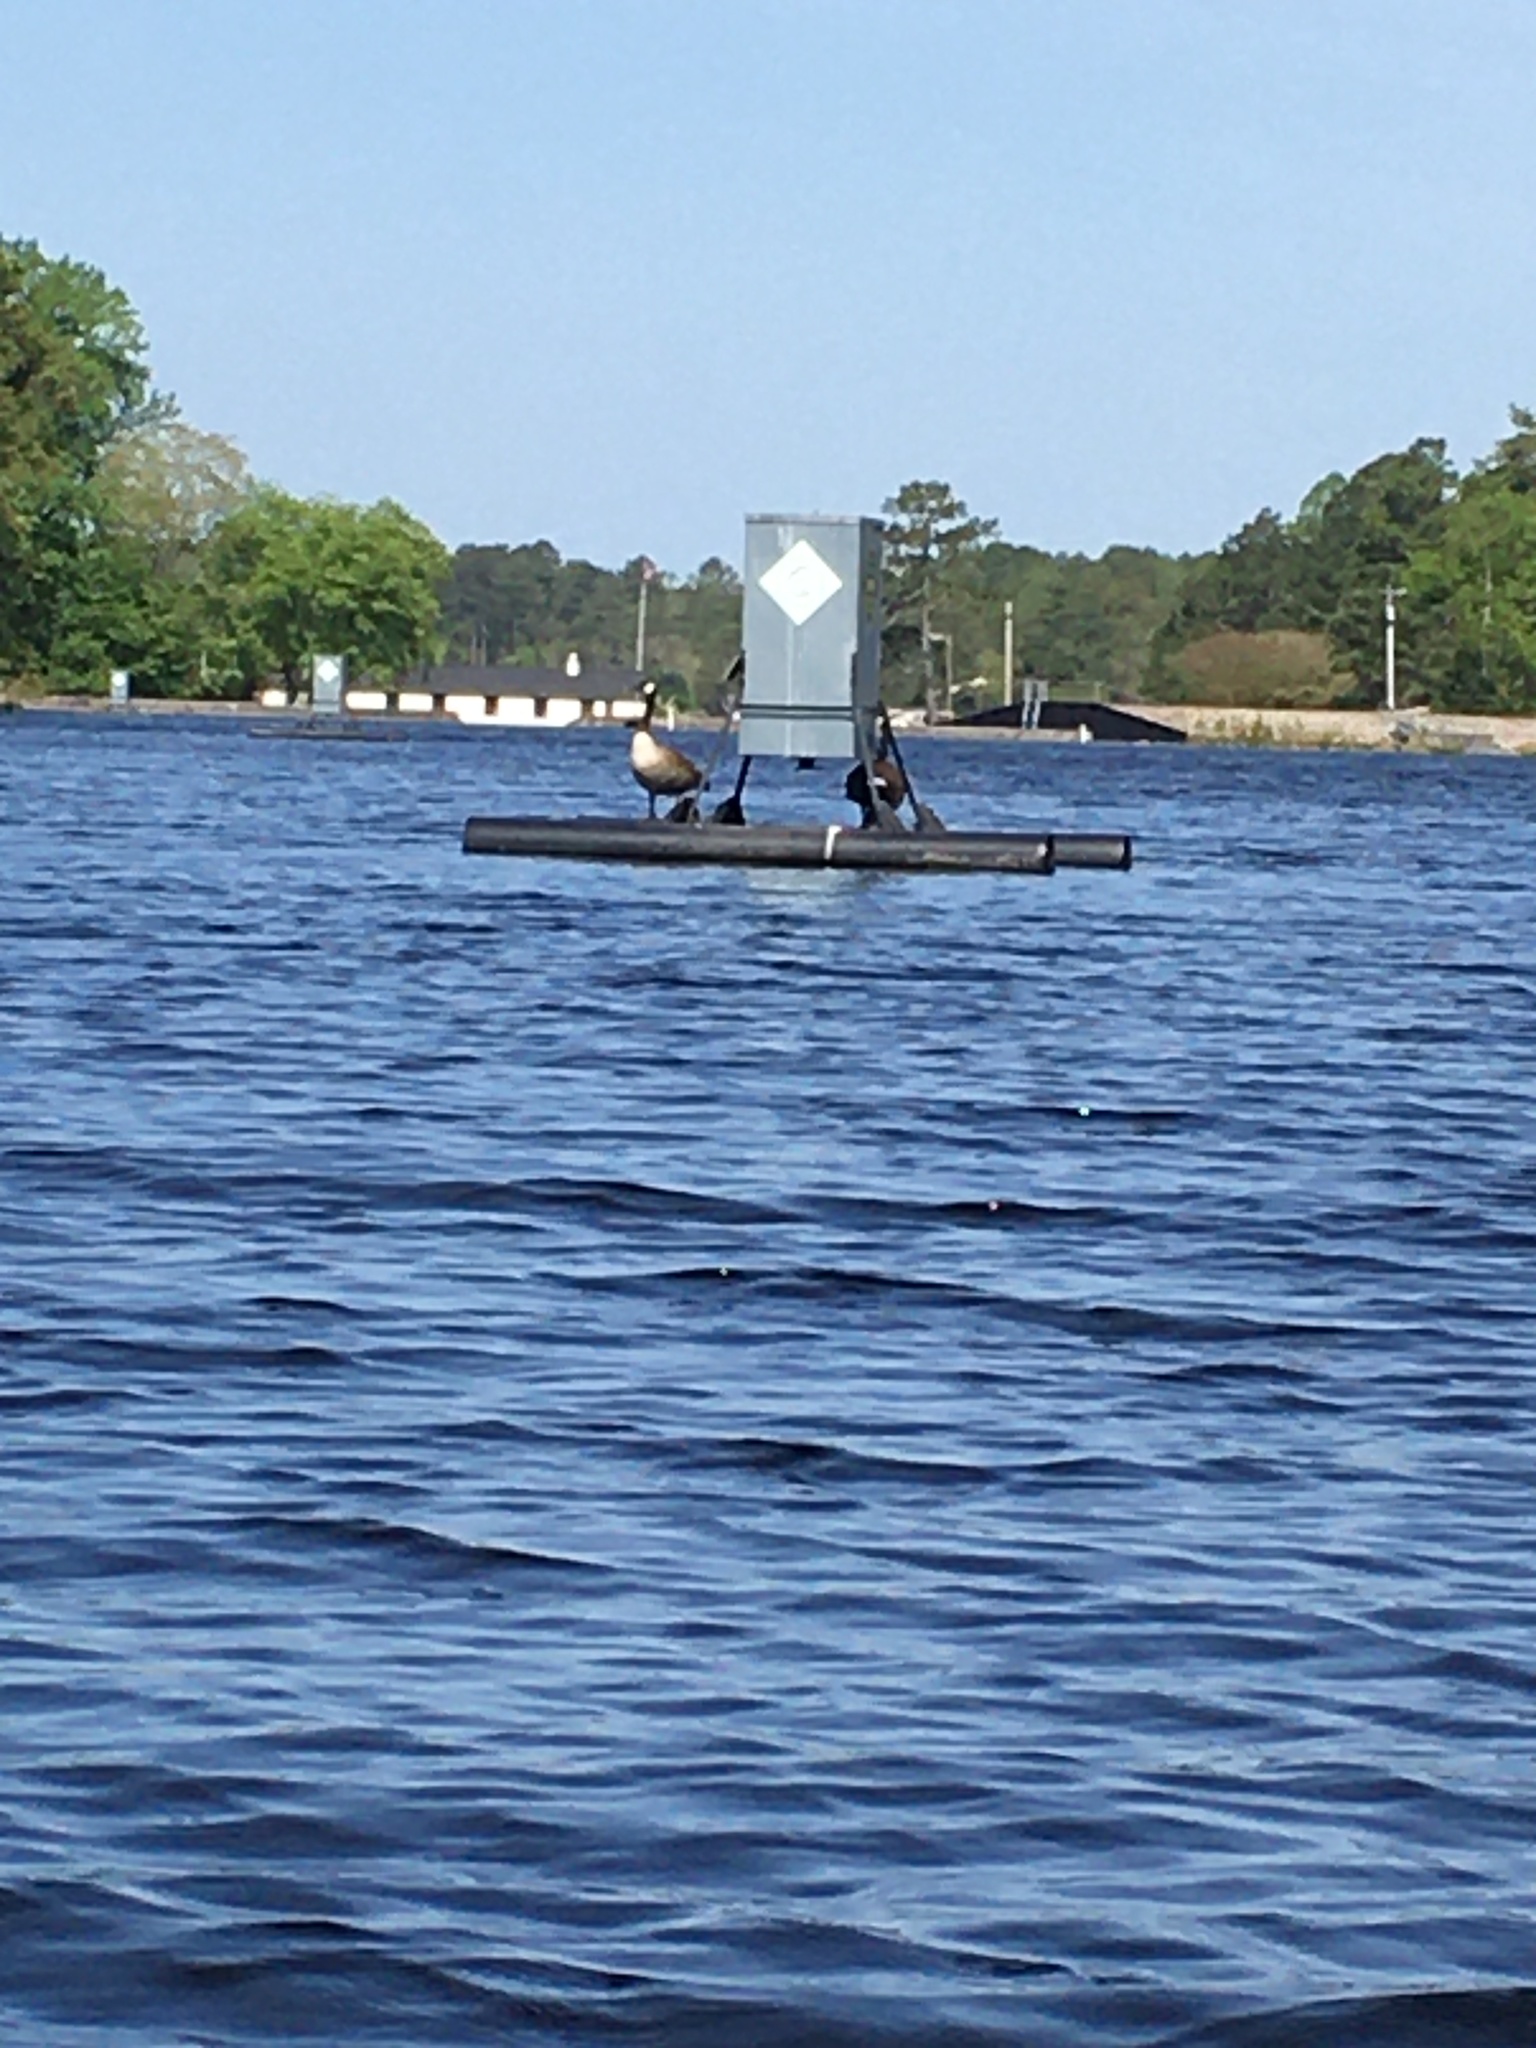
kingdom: Animalia
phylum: Chordata
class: Aves
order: Anseriformes
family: Anatidae
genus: Branta
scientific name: Branta canadensis
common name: Canada goose
